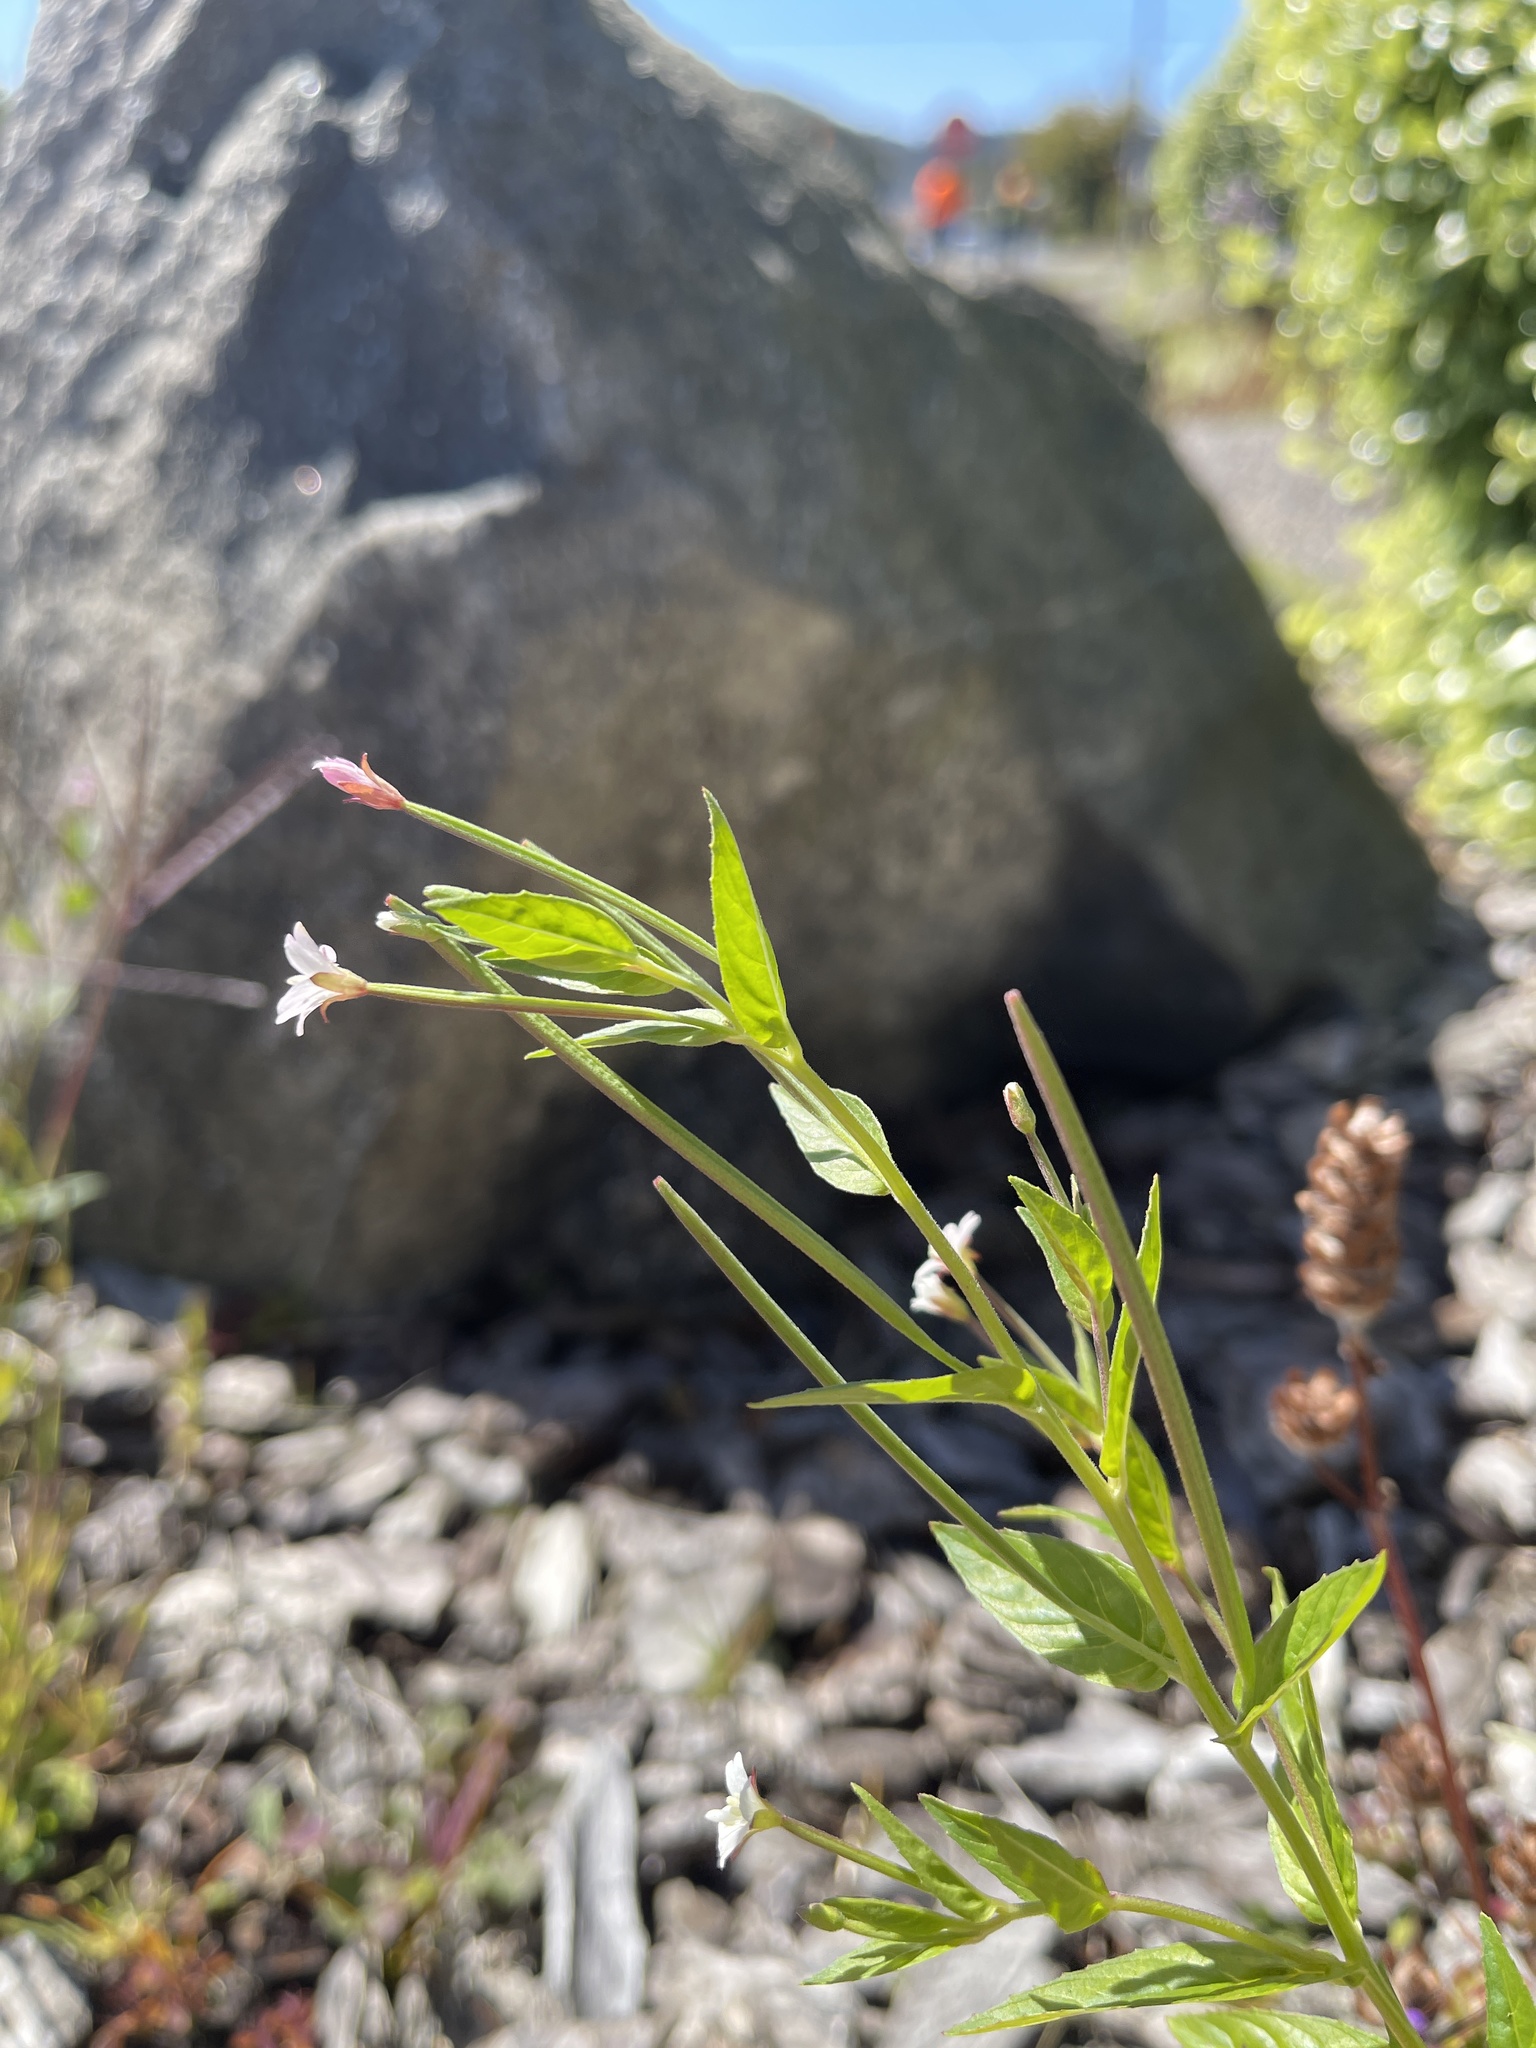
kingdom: Plantae
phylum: Tracheophyta
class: Magnoliopsida
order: Myrtales
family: Onagraceae
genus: Epilobium
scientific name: Epilobium ciliatum
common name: American willowherb
